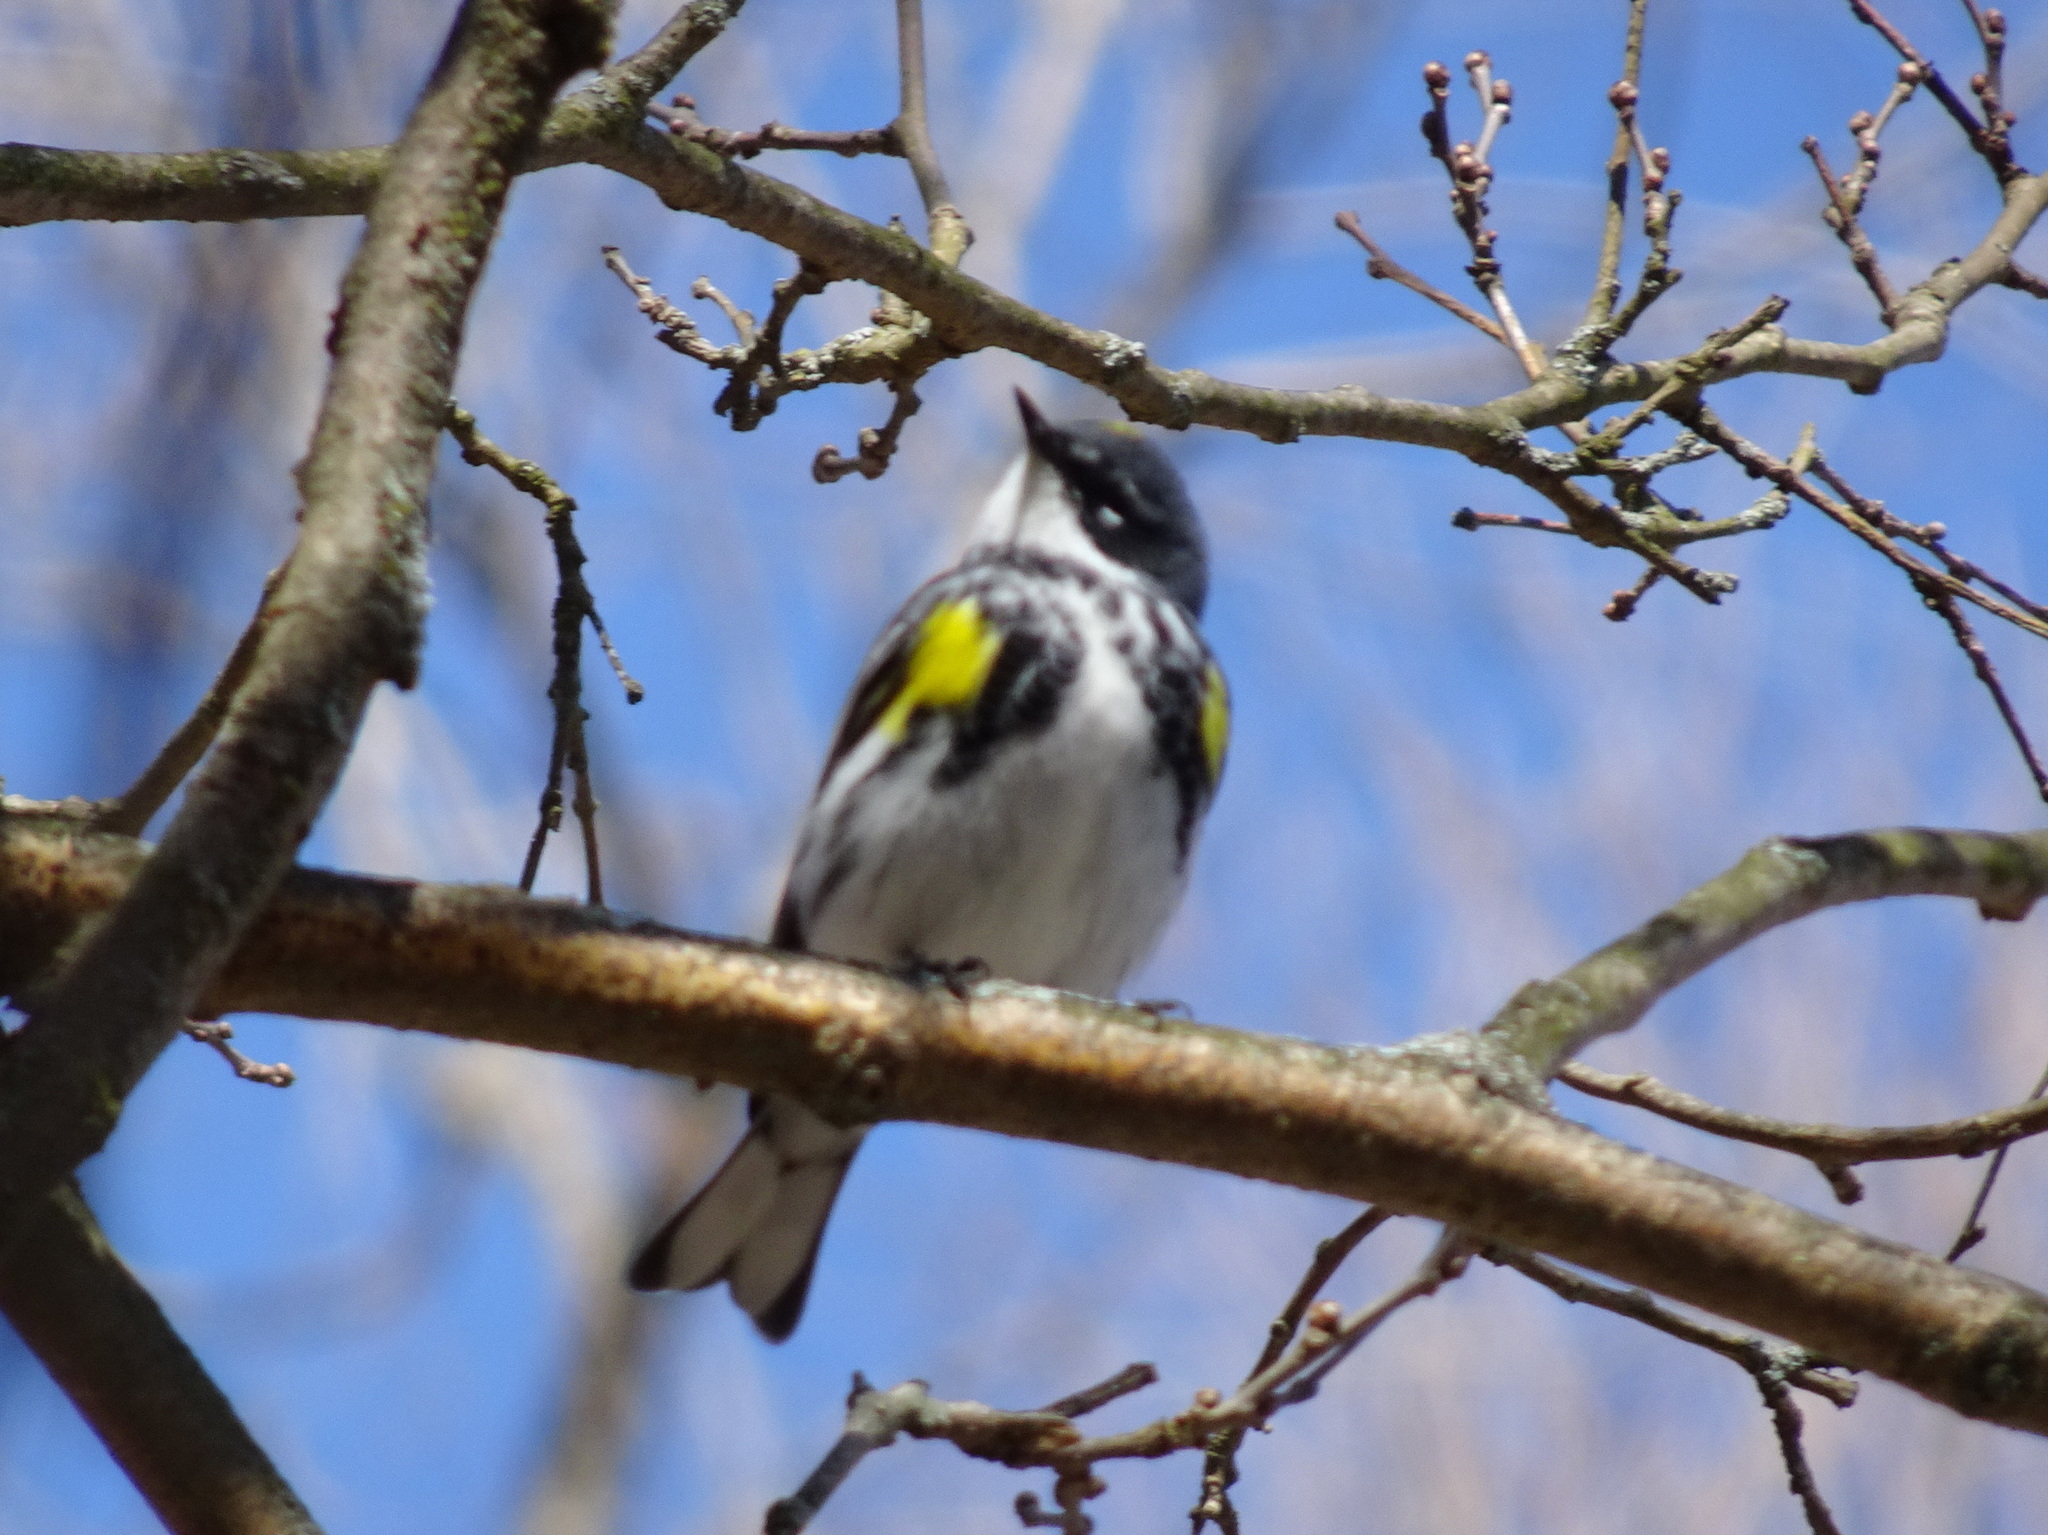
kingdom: Animalia
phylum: Chordata
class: Aves
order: Passeriformes
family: Parulidae
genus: Setophaga
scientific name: Setophaga coronata
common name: Myrtle warbler
